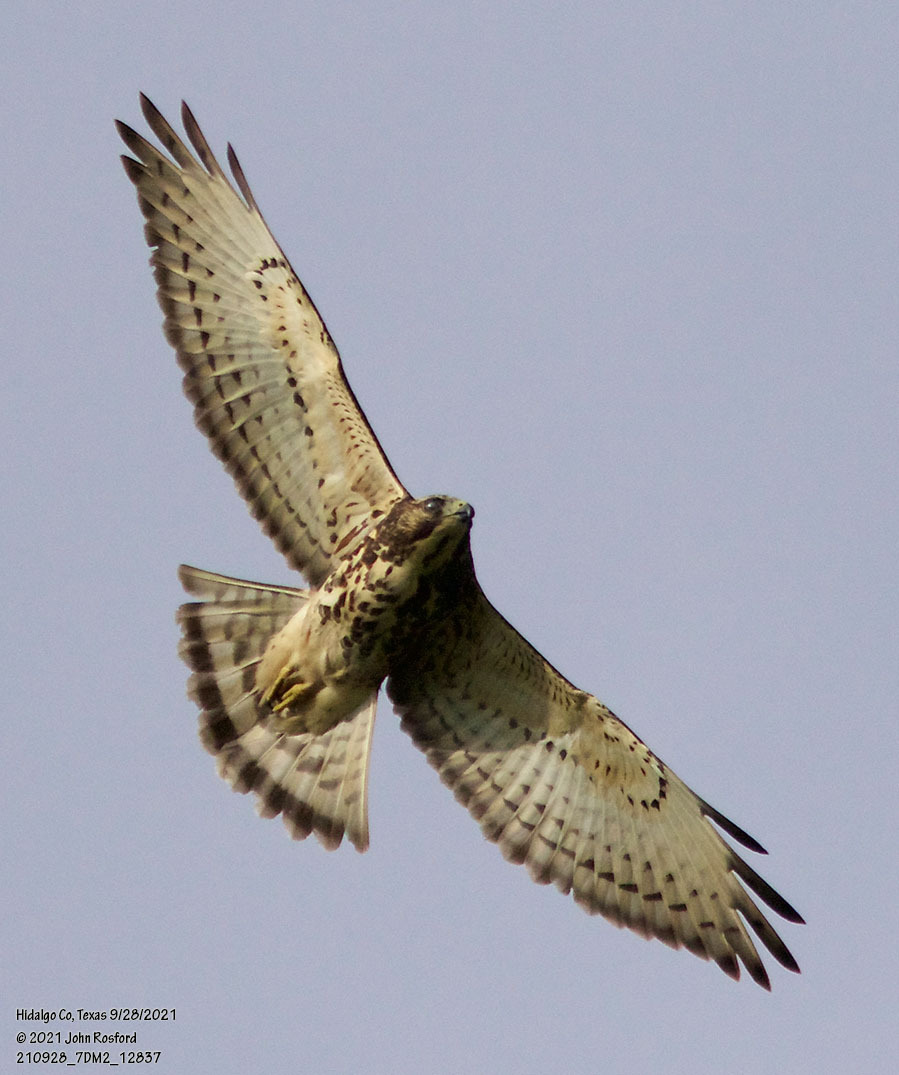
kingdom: Animalia
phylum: Chordata
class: Aves
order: Accipitriformes
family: Accipitridae
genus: Buteo
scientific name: Buteo platypterus
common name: Broad-winged hawk
